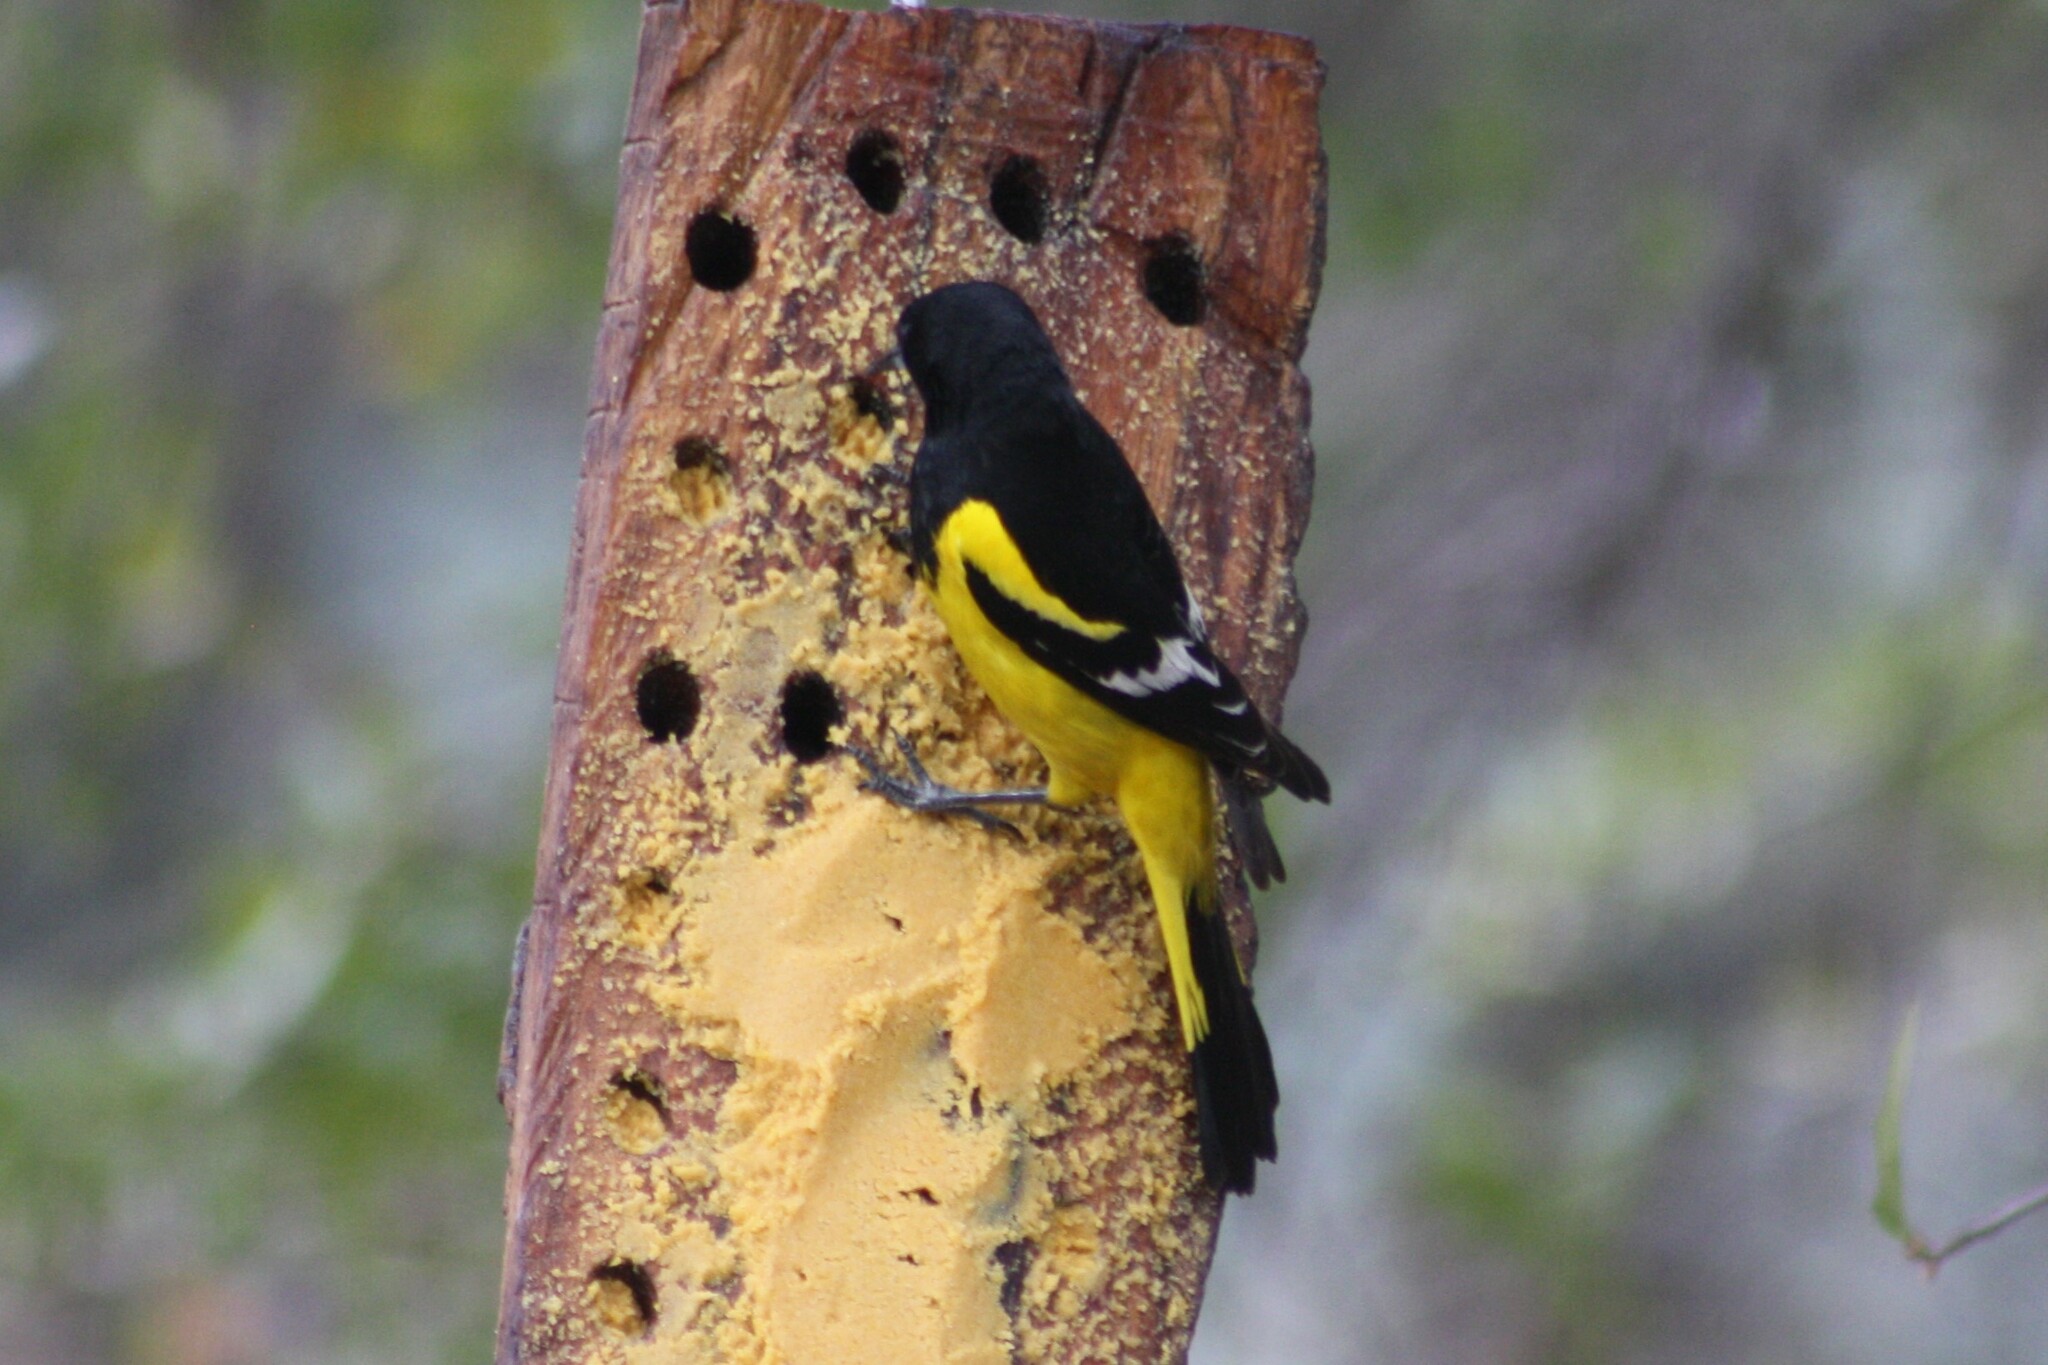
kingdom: Animalia
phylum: Chordata
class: Aves
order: Passeriformes
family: Icteridae
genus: Icterus
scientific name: Icterus parisorum
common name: Scott's oriole
